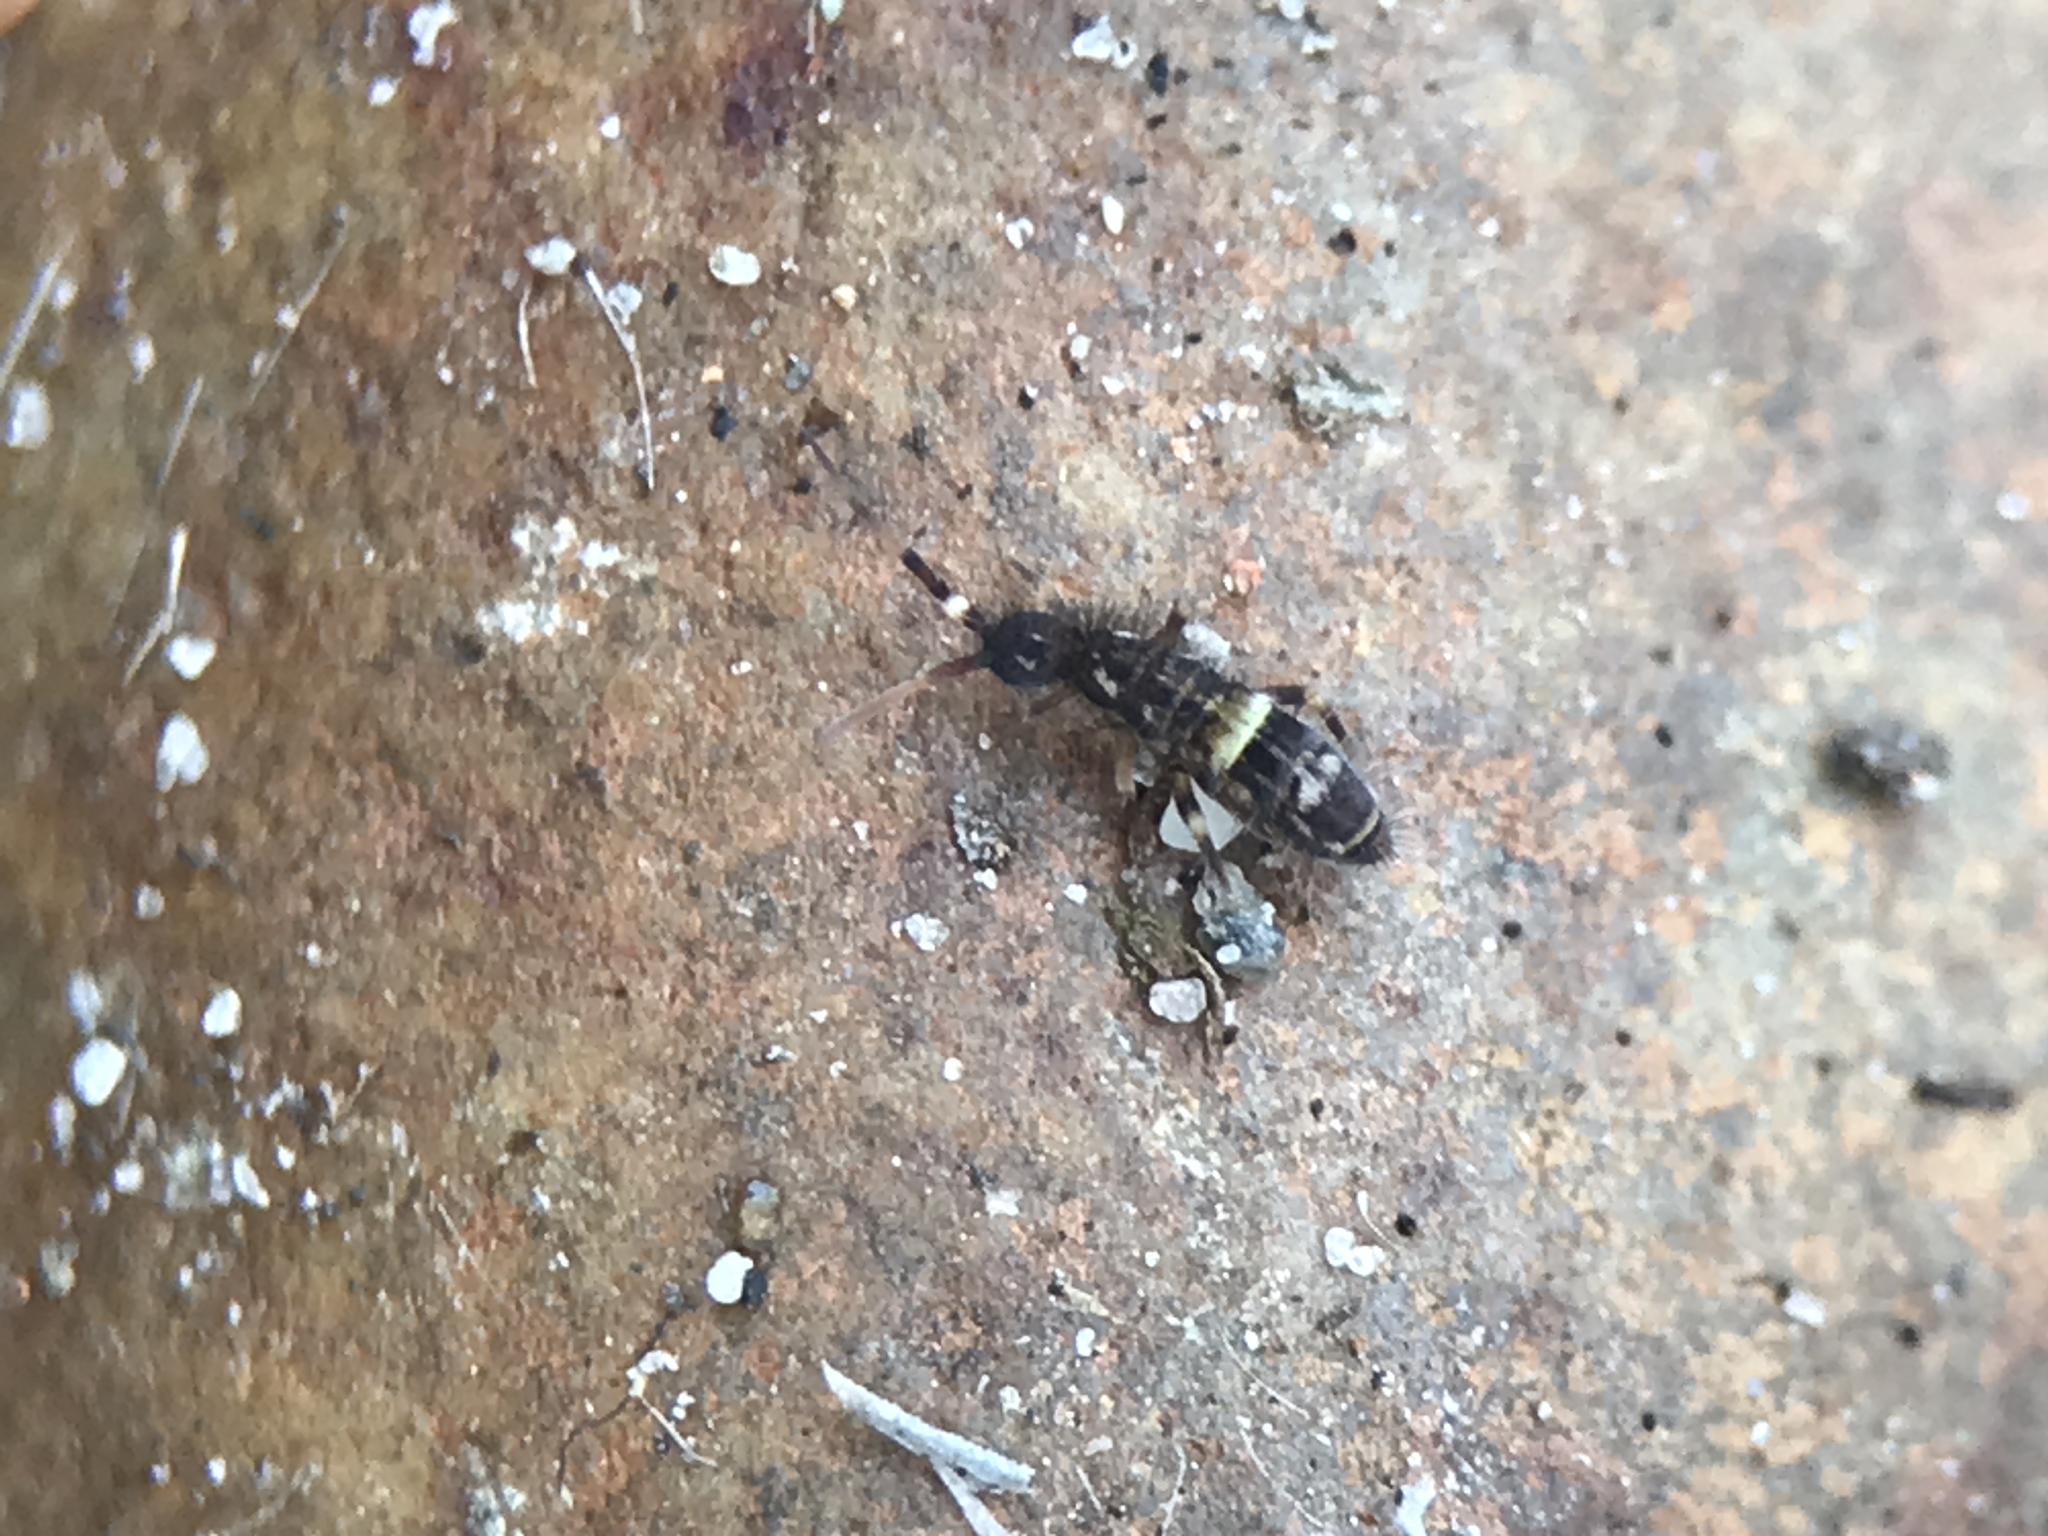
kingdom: Animalia
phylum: Arthropoda
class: Collembola
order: Entomobryomorpha
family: Orchesellidae
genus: Orchesella
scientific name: Orchesella cincta
